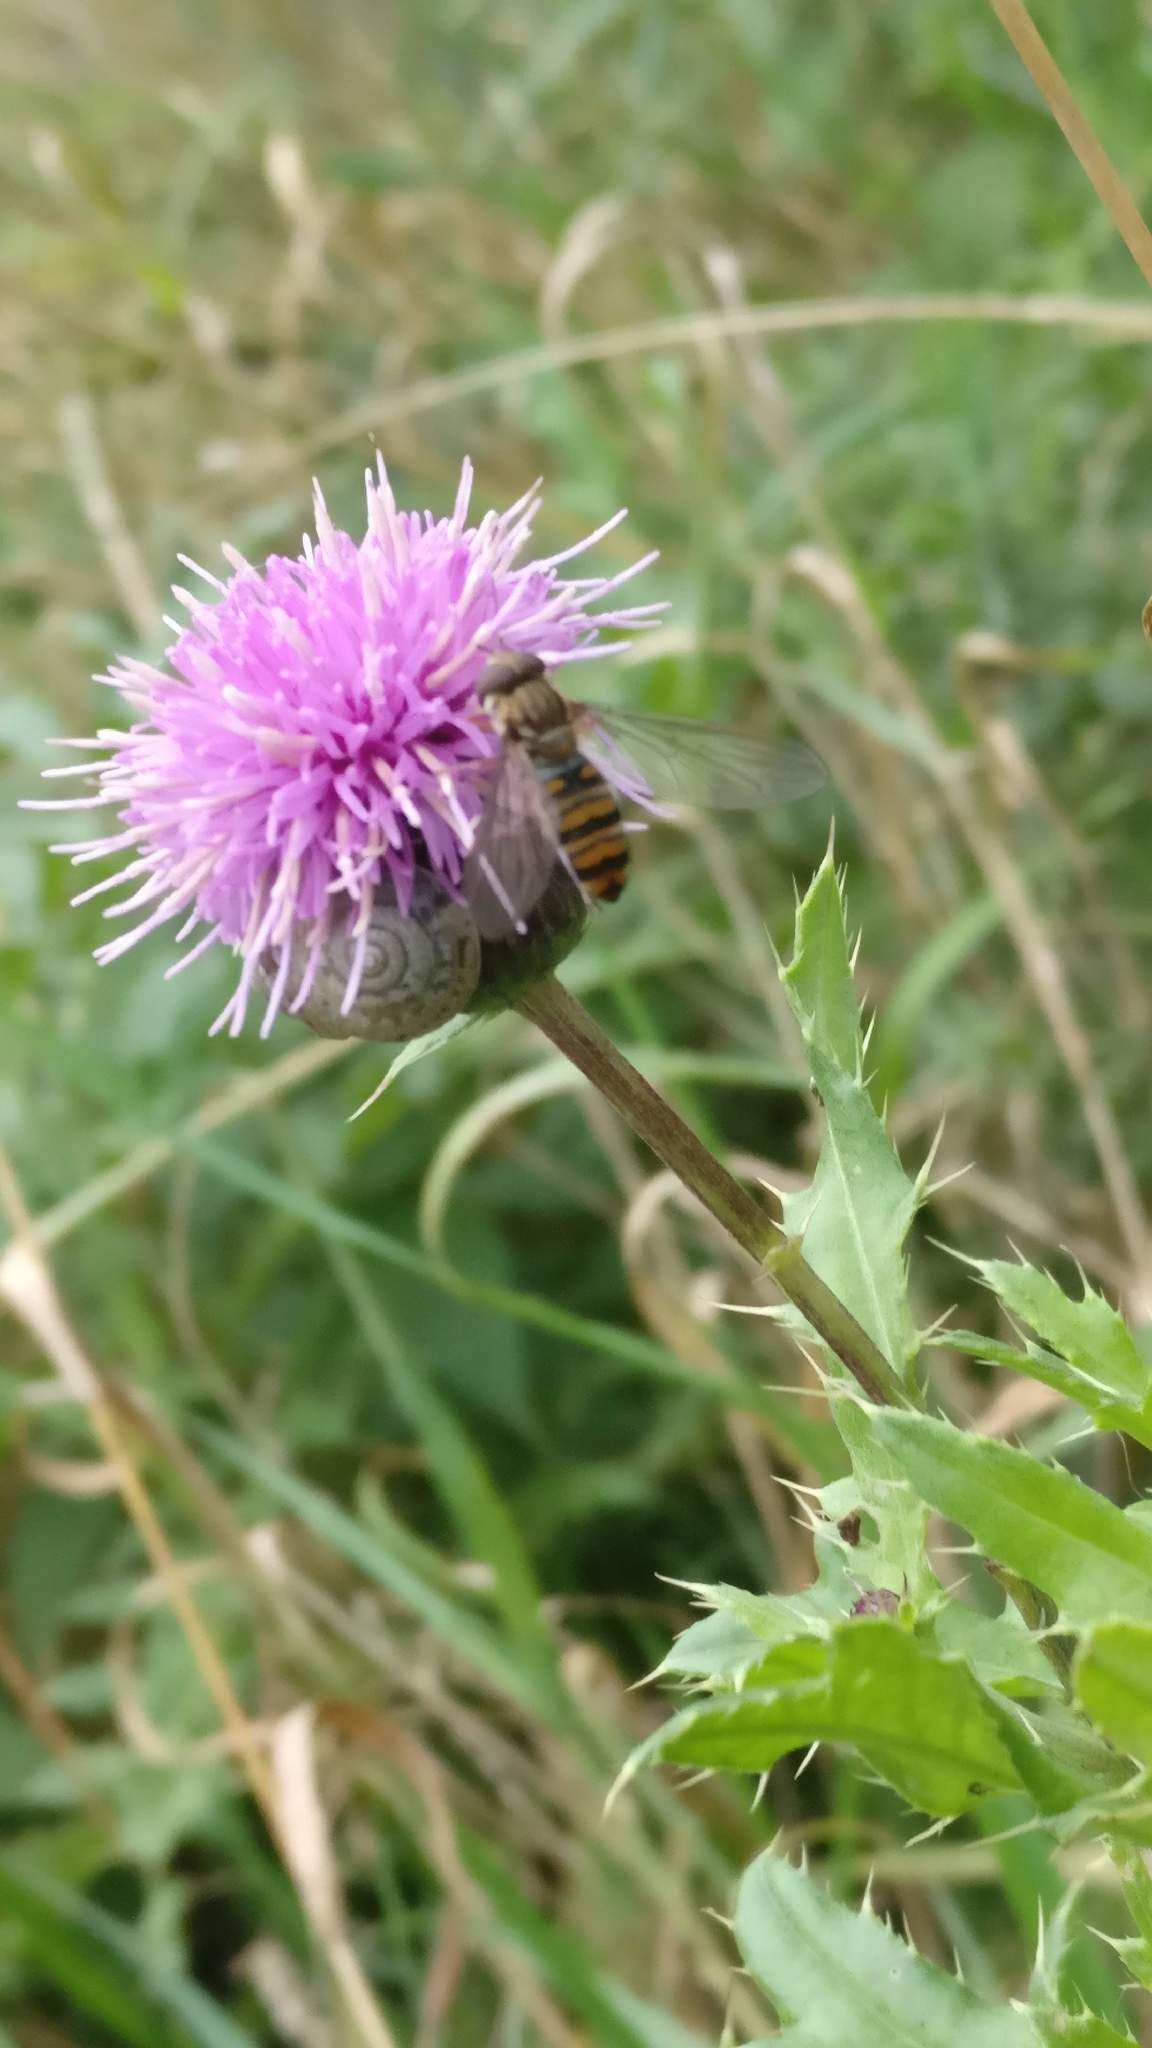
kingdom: Animalia
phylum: Arthropoda
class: Insecta
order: Diptera
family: Syrphidae
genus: Episyrphus
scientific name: Episyrphus balteatus
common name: Marmalade hoverfly
